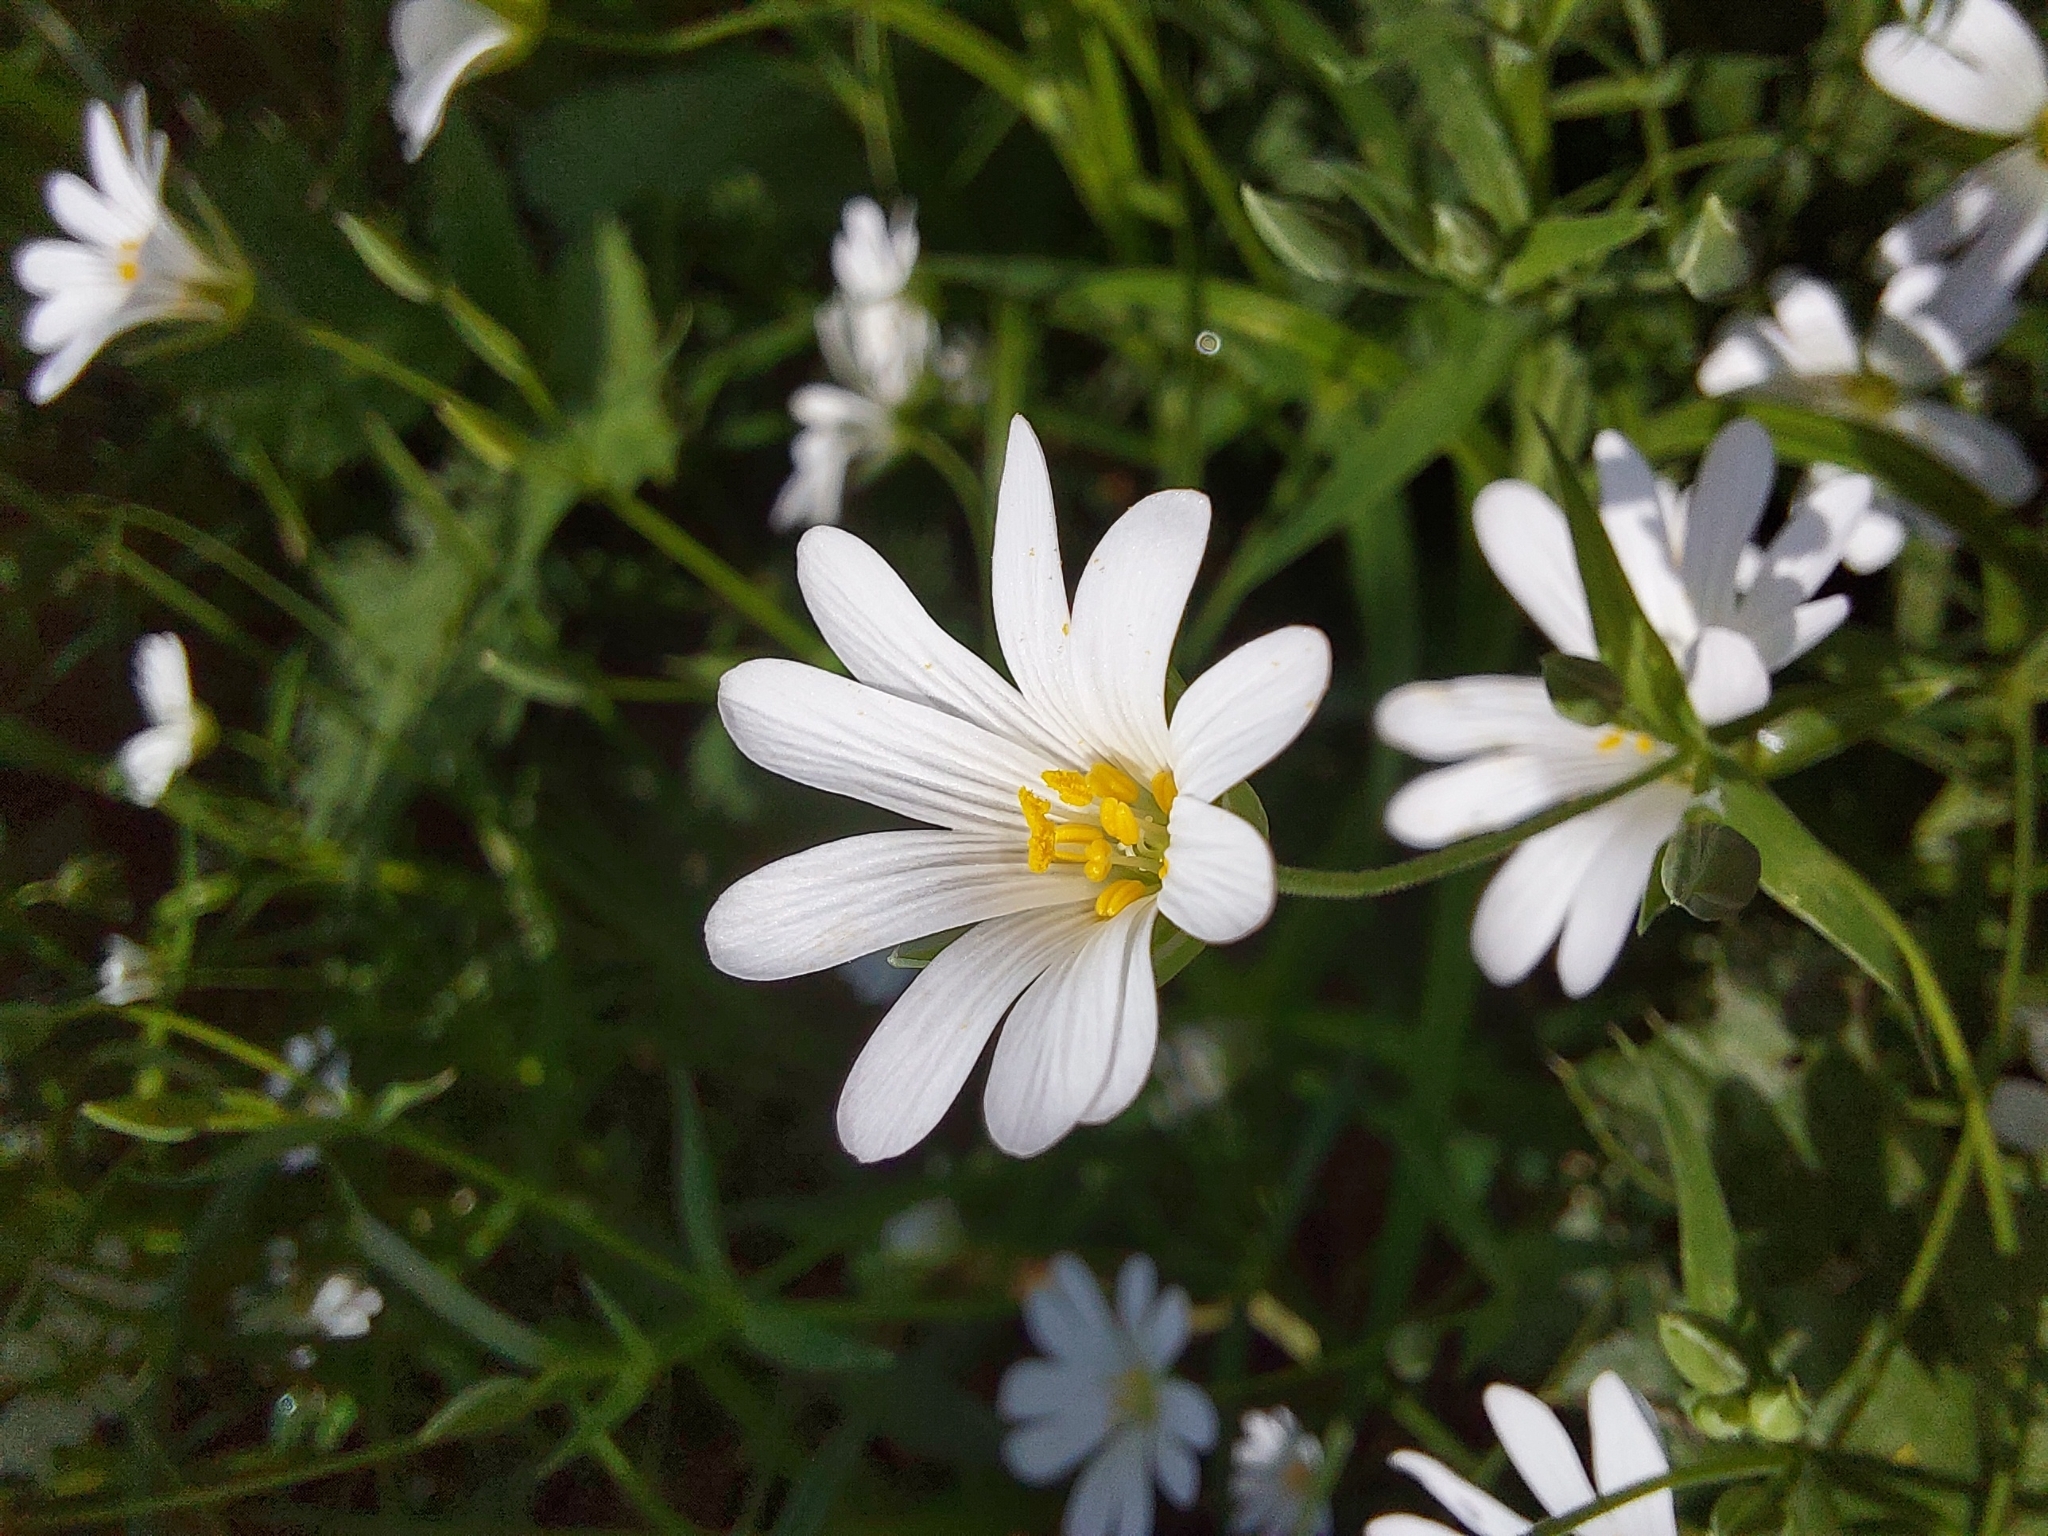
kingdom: Plantae
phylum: Tracheophyta
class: Magnoliopsida
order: Caryophyllales
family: Caryophyllaceae
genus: Rabelera
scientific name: Rabelera holostea
